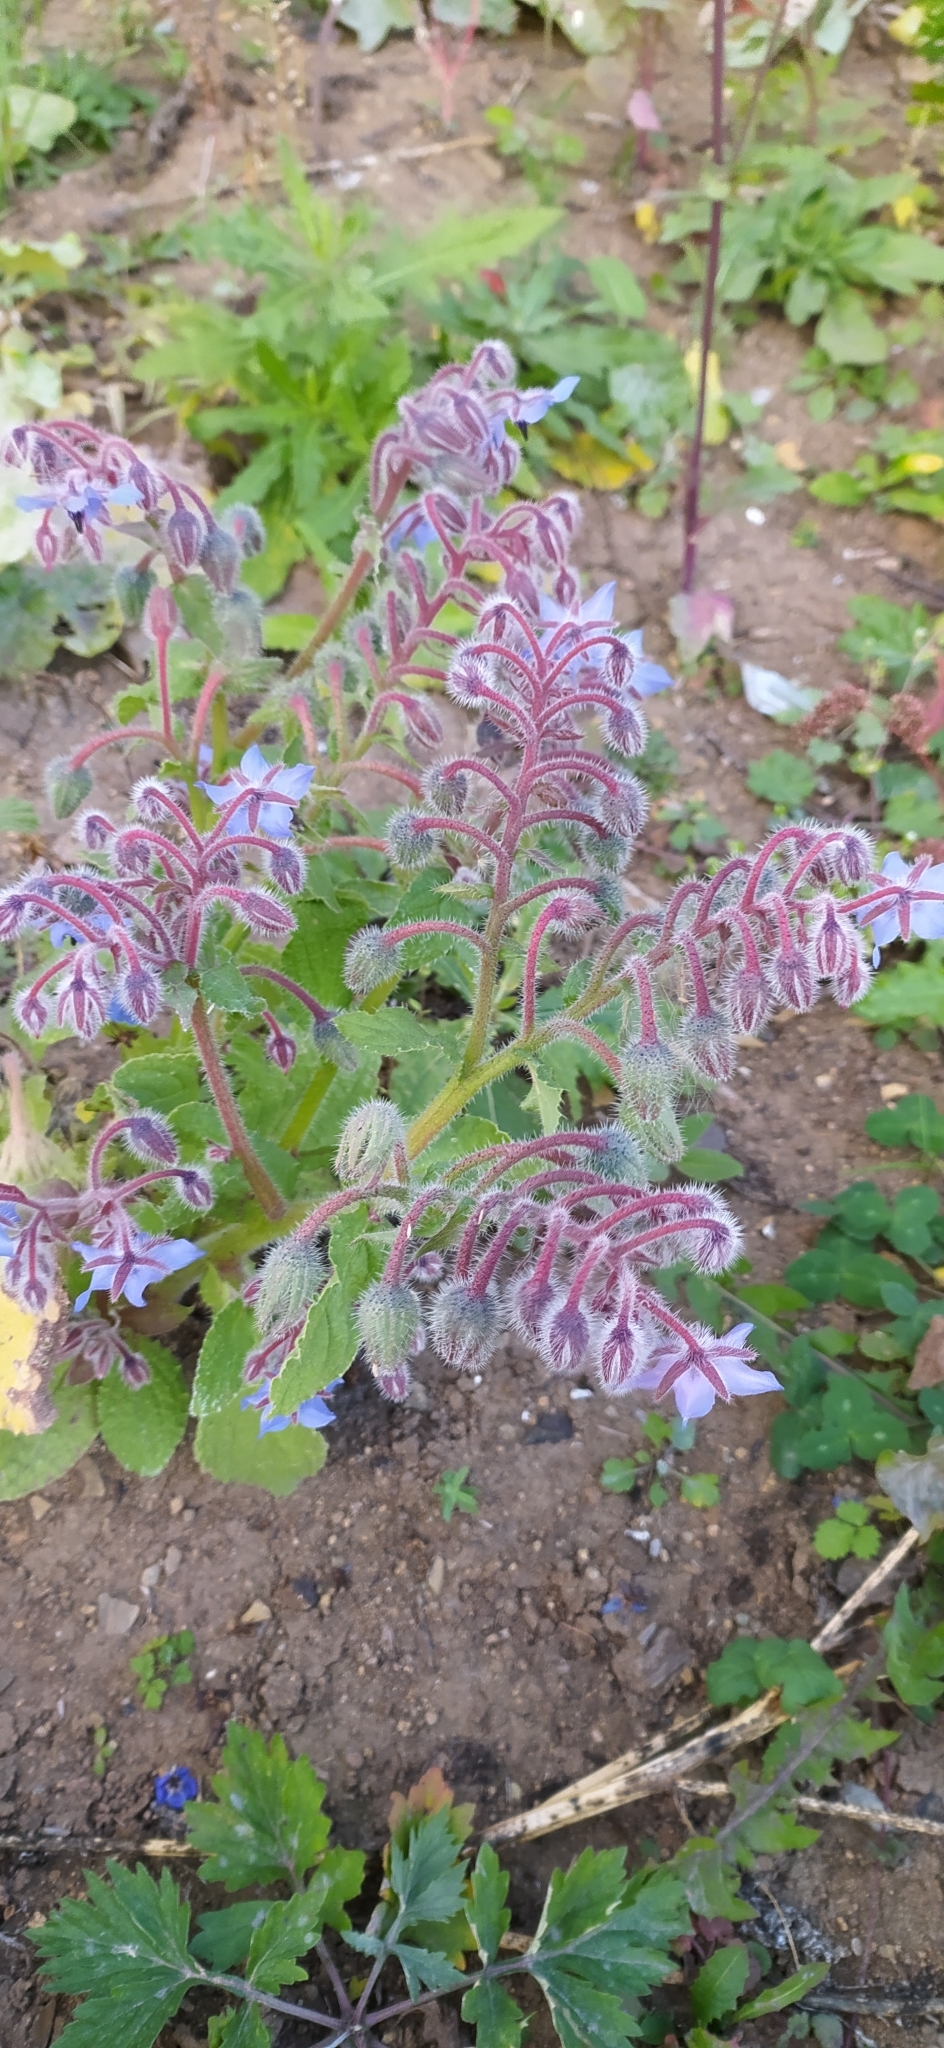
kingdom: Plantae
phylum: Tracheophyta
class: Magnoliopsida
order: Boraginales
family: Boraginaceae
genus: Borago
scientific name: Borago officinalis
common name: Borage
